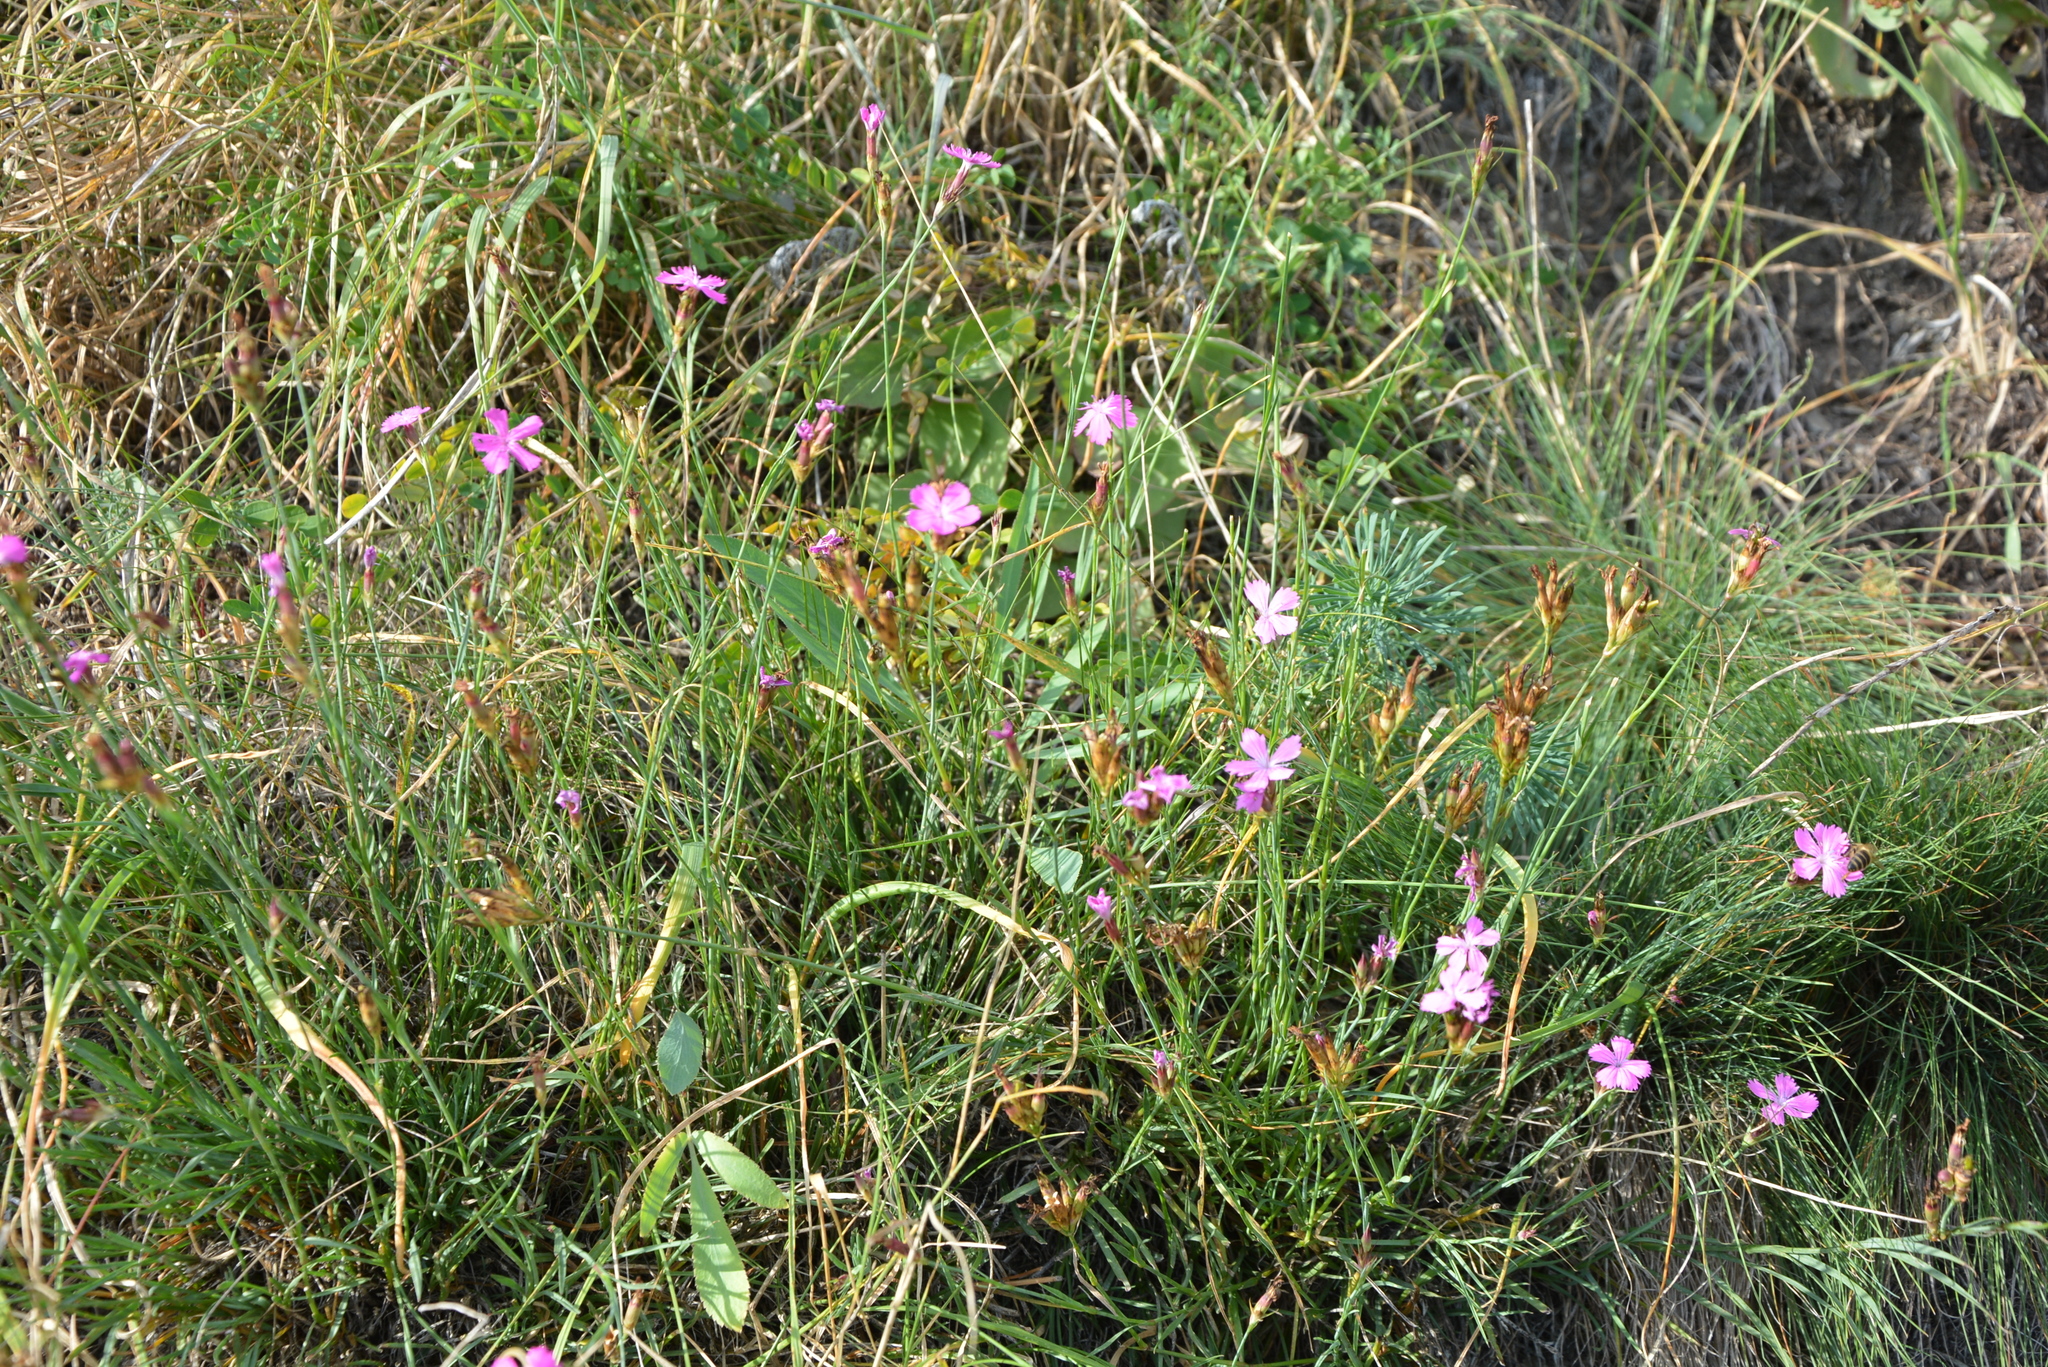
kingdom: Plantae
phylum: Tracheophyta
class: Magnoliopsida
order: Caryophyllales
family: Caryophyllaceae
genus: Dianthus
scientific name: Dianthus carthusianorum
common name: Carthusian pink
